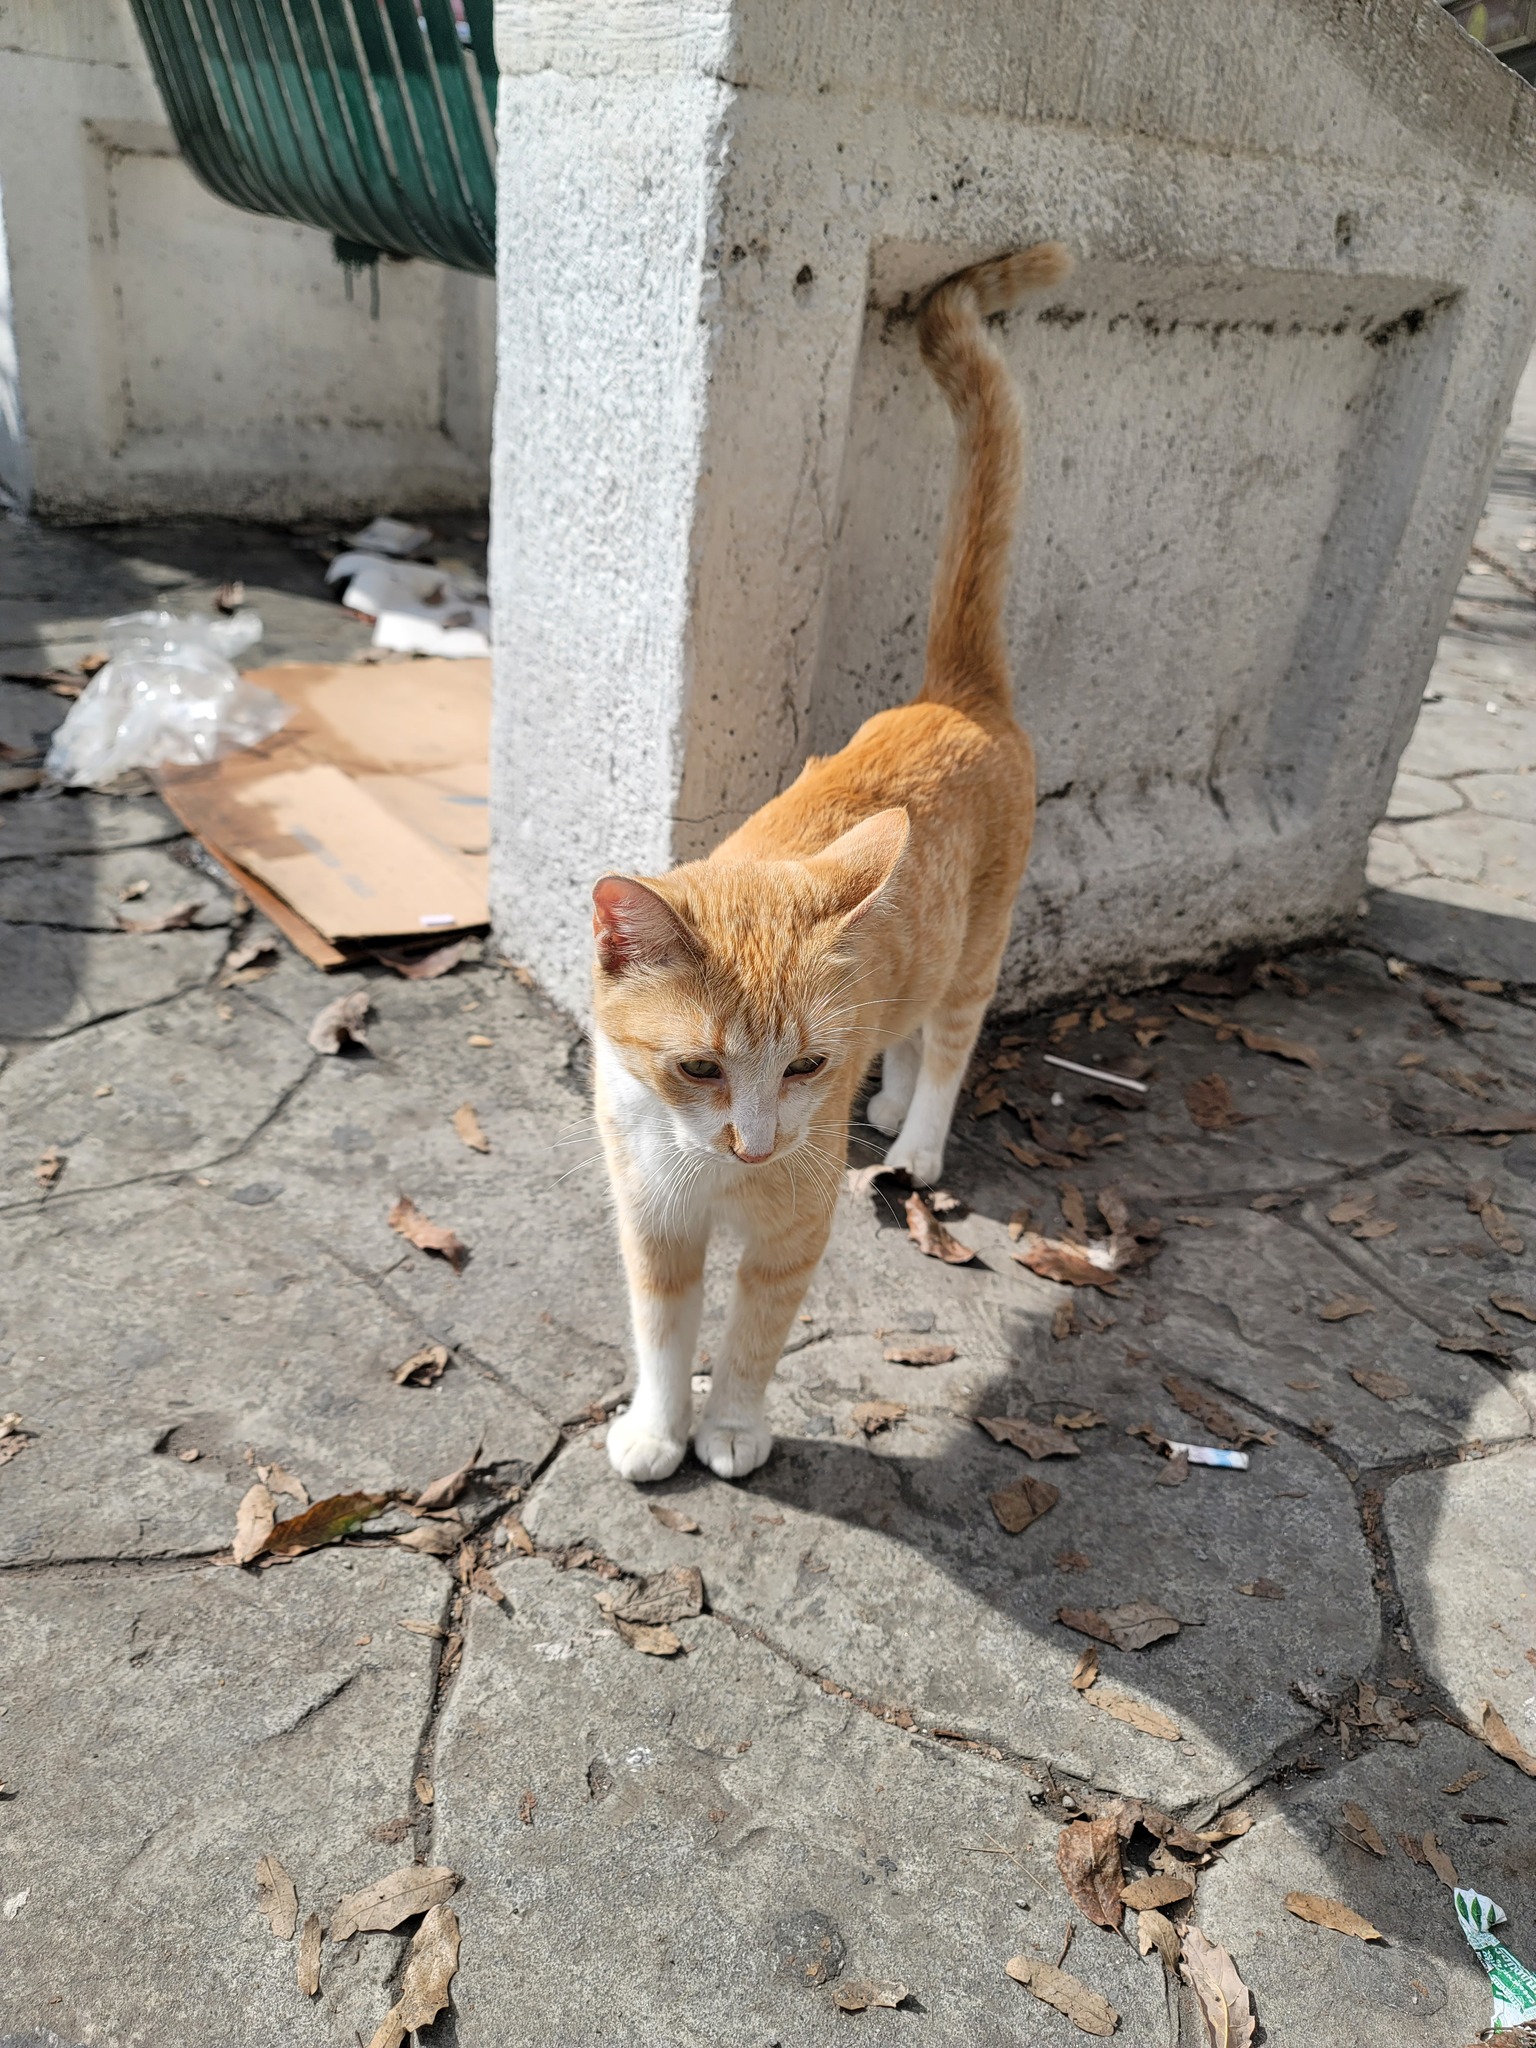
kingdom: Animalia
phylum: Chordata
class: Mammalia
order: Carnivora
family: Felidae
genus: Felis
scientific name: Felis catus
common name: Domestic cat
